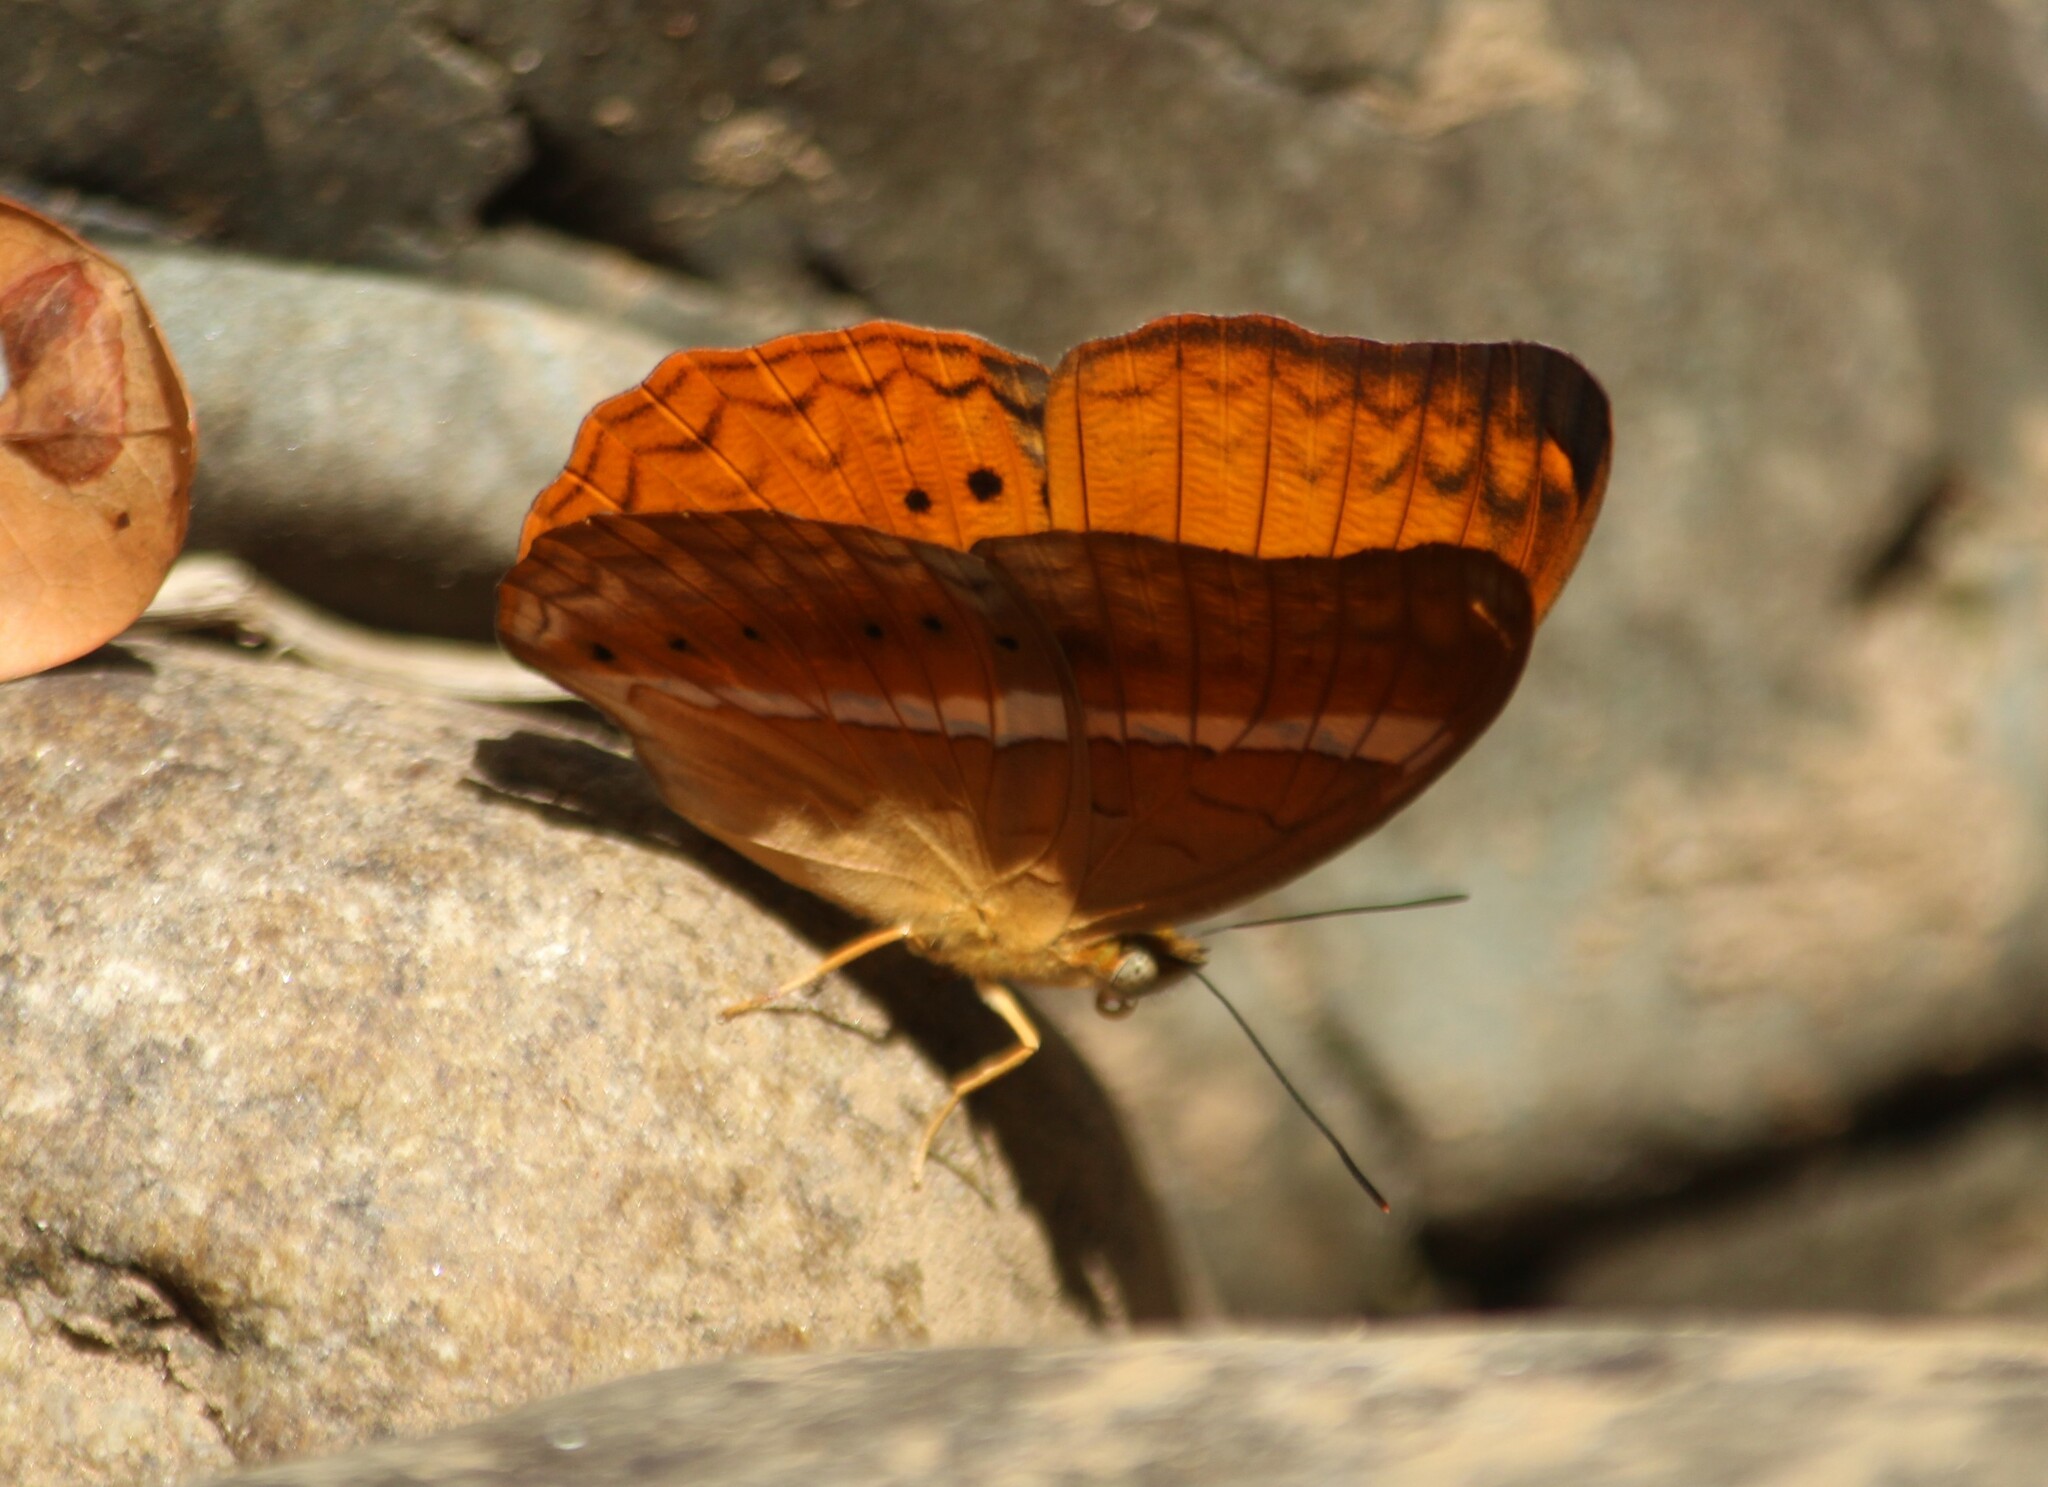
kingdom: Animalia
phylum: Arthropoda
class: Insecta
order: Lepidoptera
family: Nymphalidae
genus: Cirrochroa
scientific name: Cirrochroa thais
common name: Tamil yeoman
